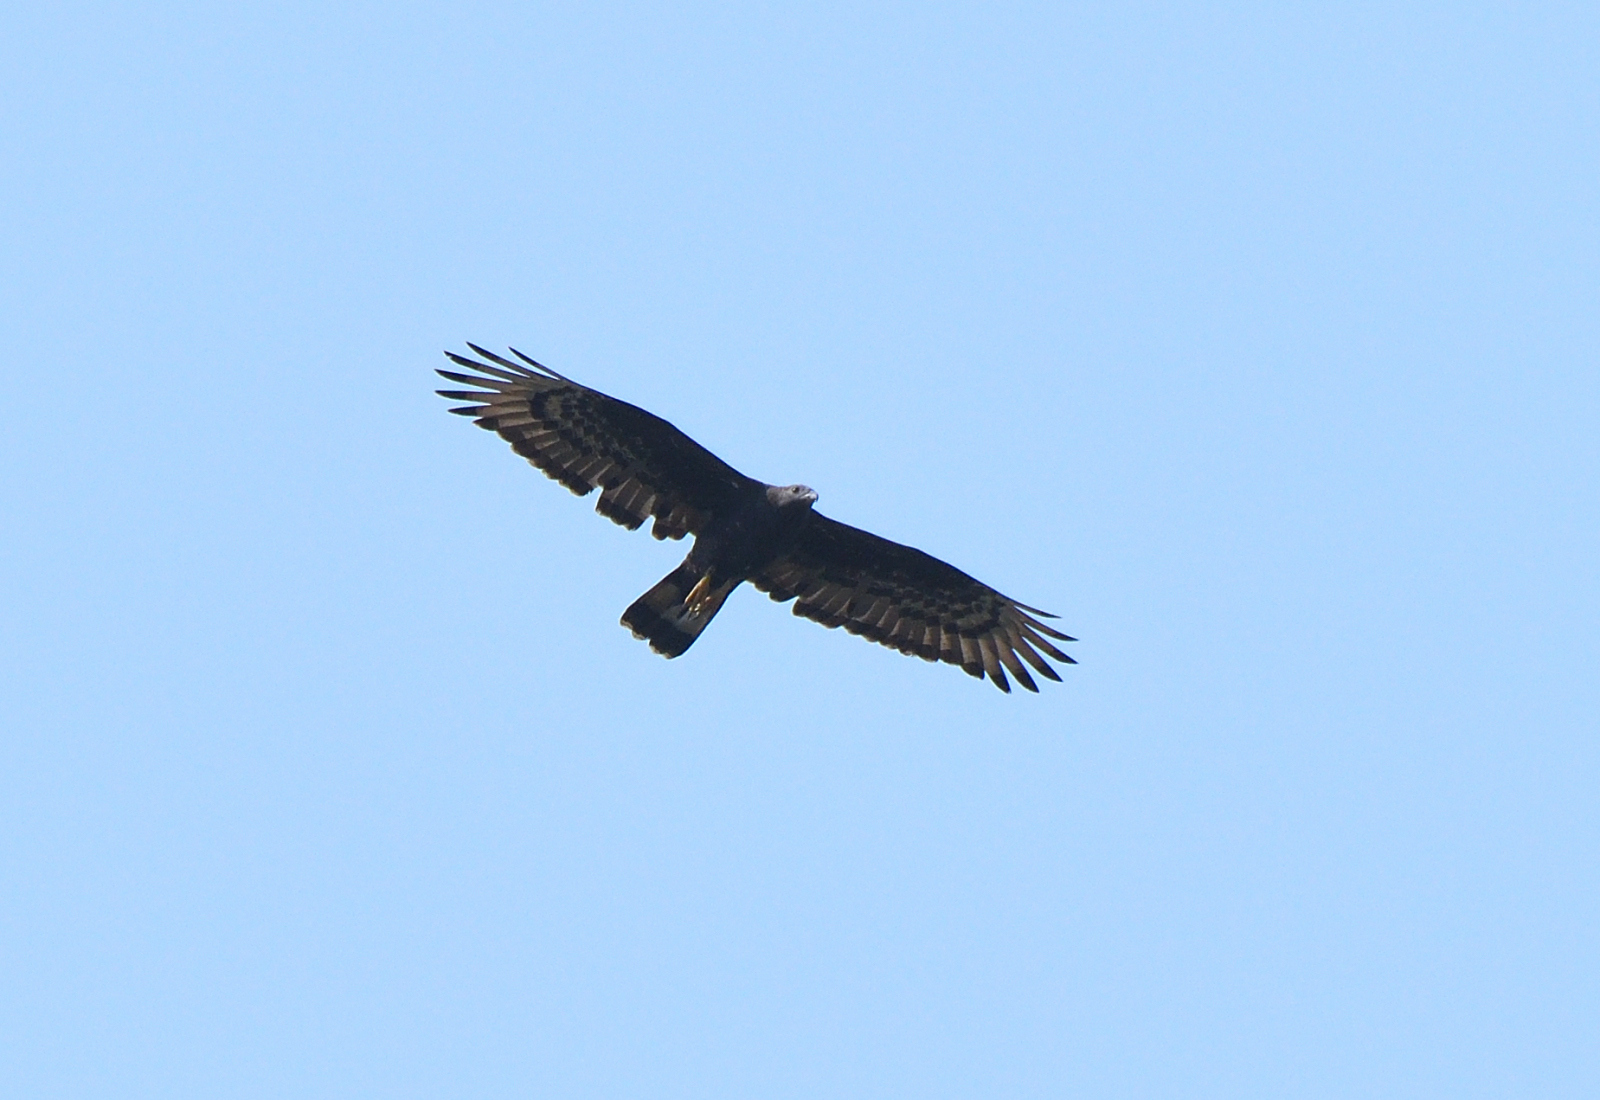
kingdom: Animalia
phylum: Chordata
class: Aves
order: Accipitriformes
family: Accipitridae
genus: Pernis
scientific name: Pernis ptilorhynchus
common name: Crested honey buzzard
